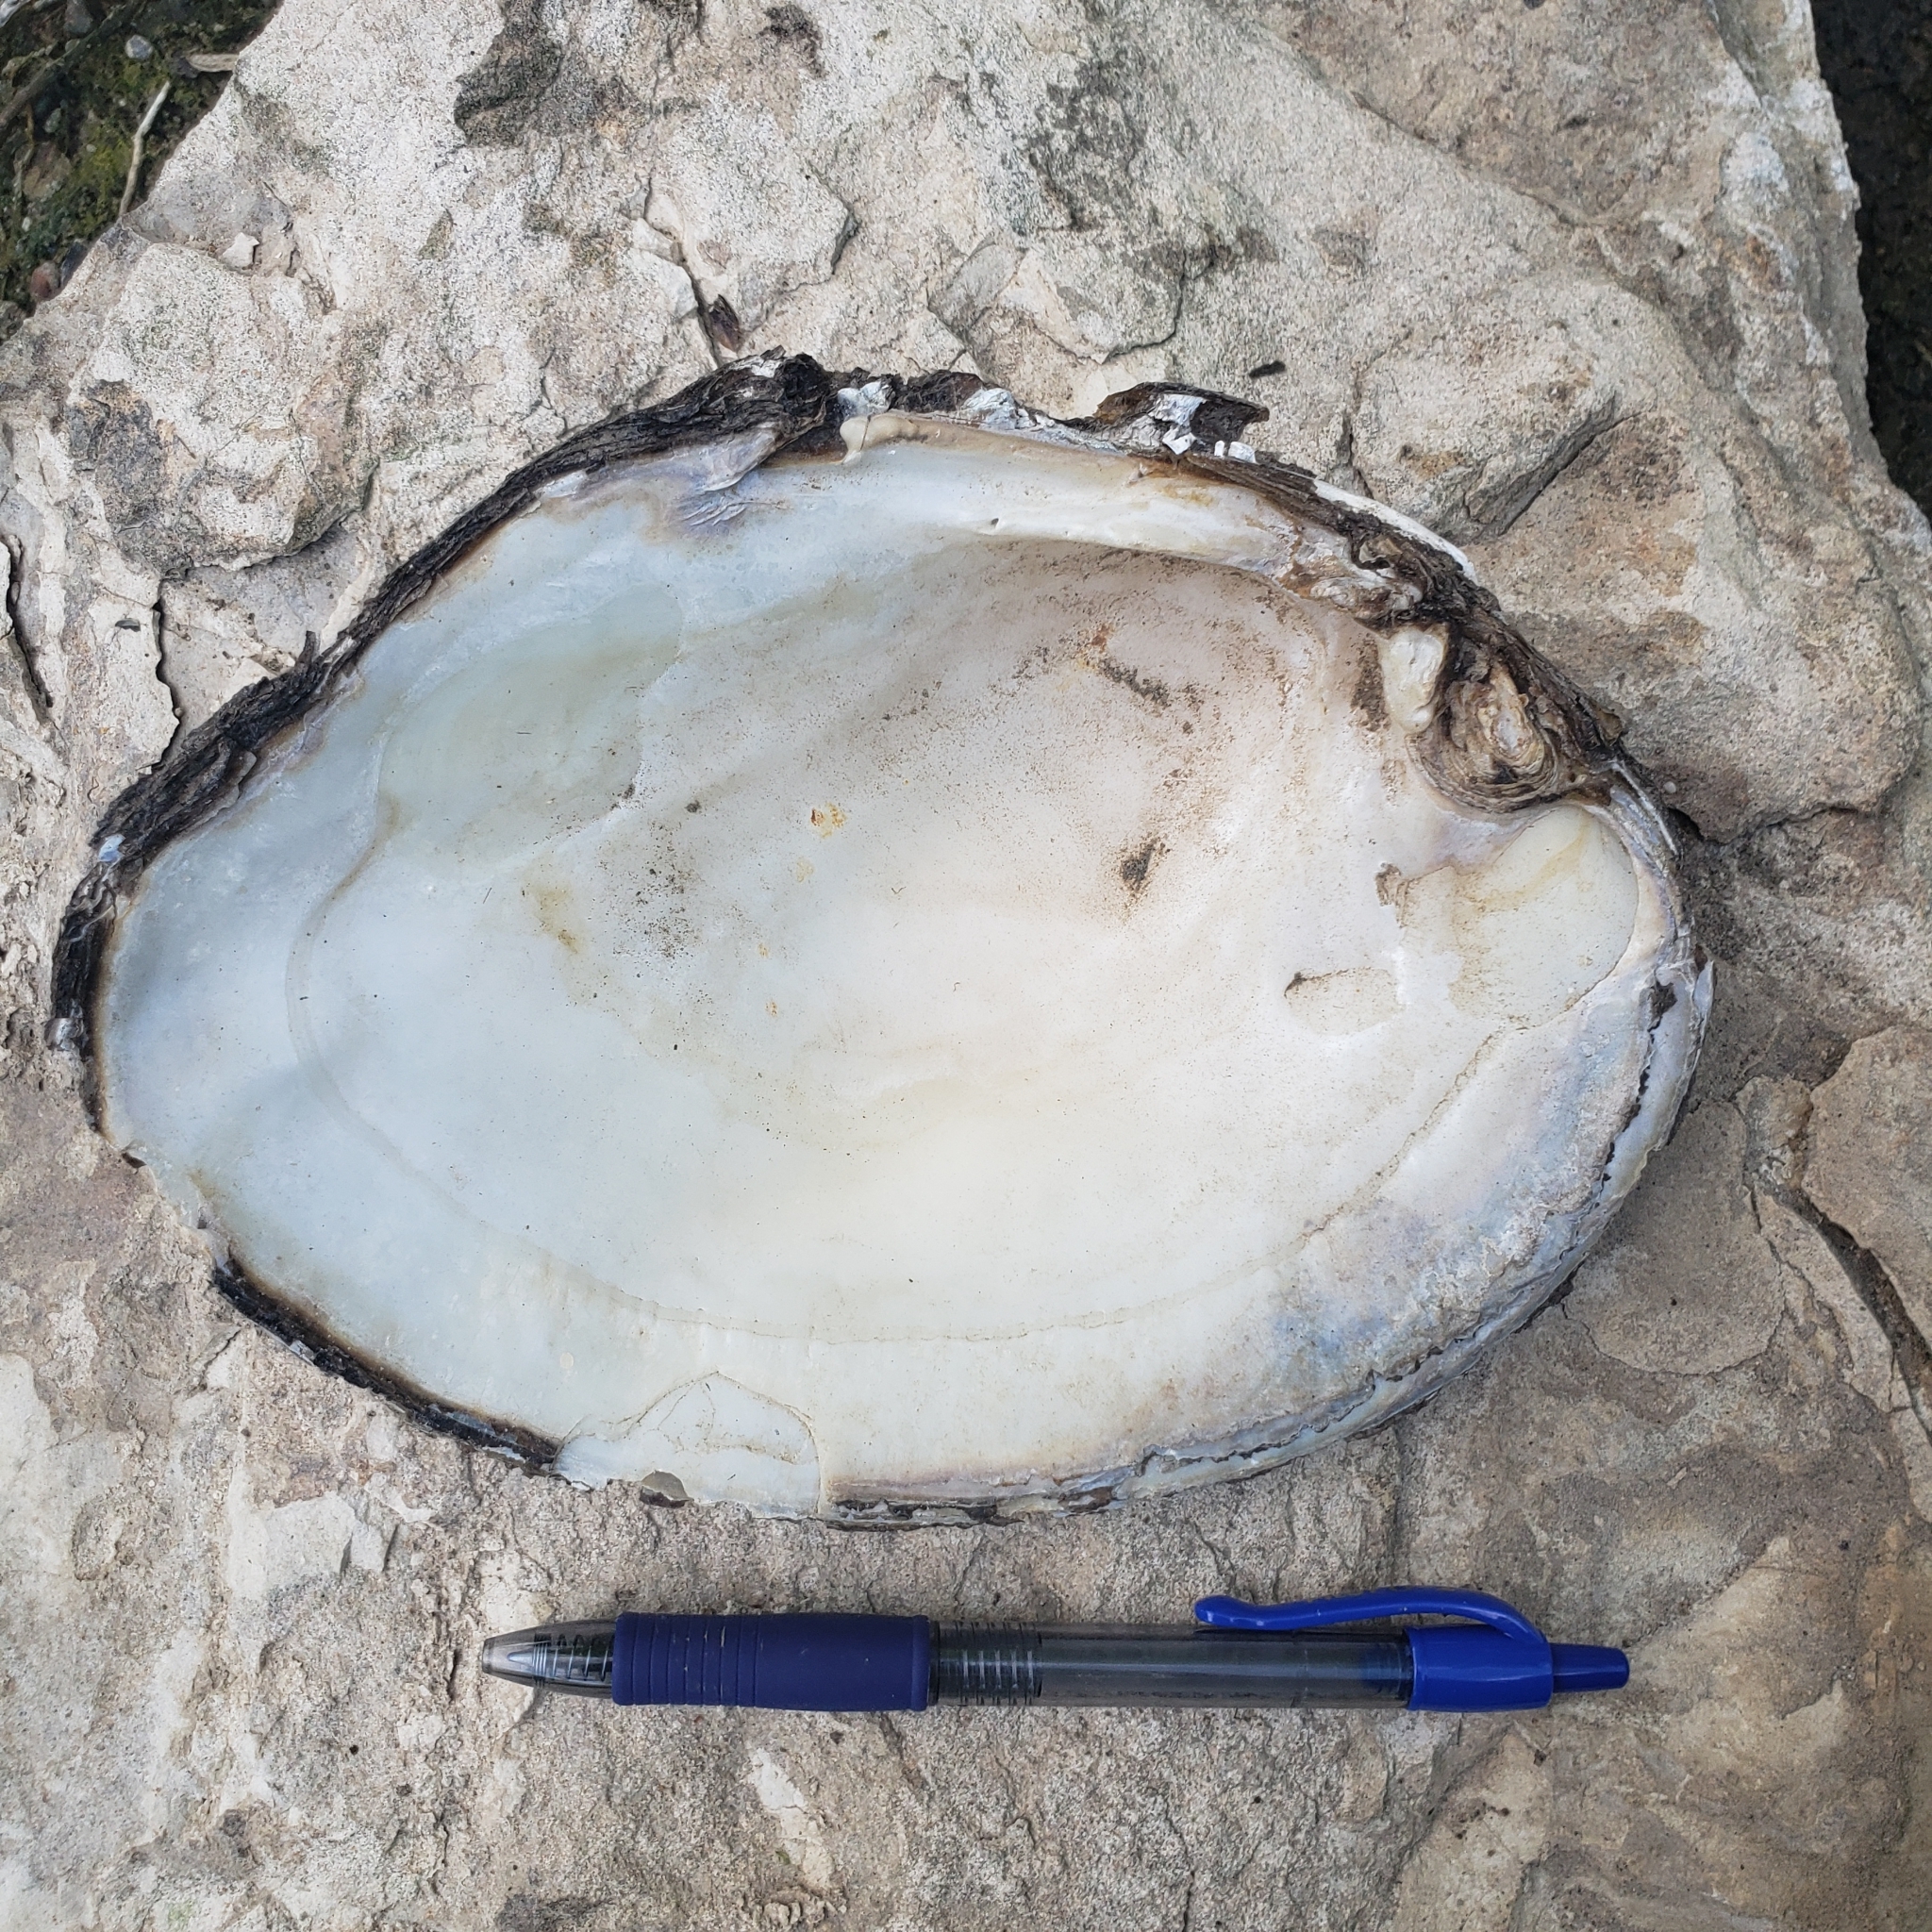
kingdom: Animalia
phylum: Mollusca
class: Bivalvia
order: Unionida
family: Unionidae
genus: Lasmigona
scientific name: Lasmigona complanata
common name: White heelsplitter
